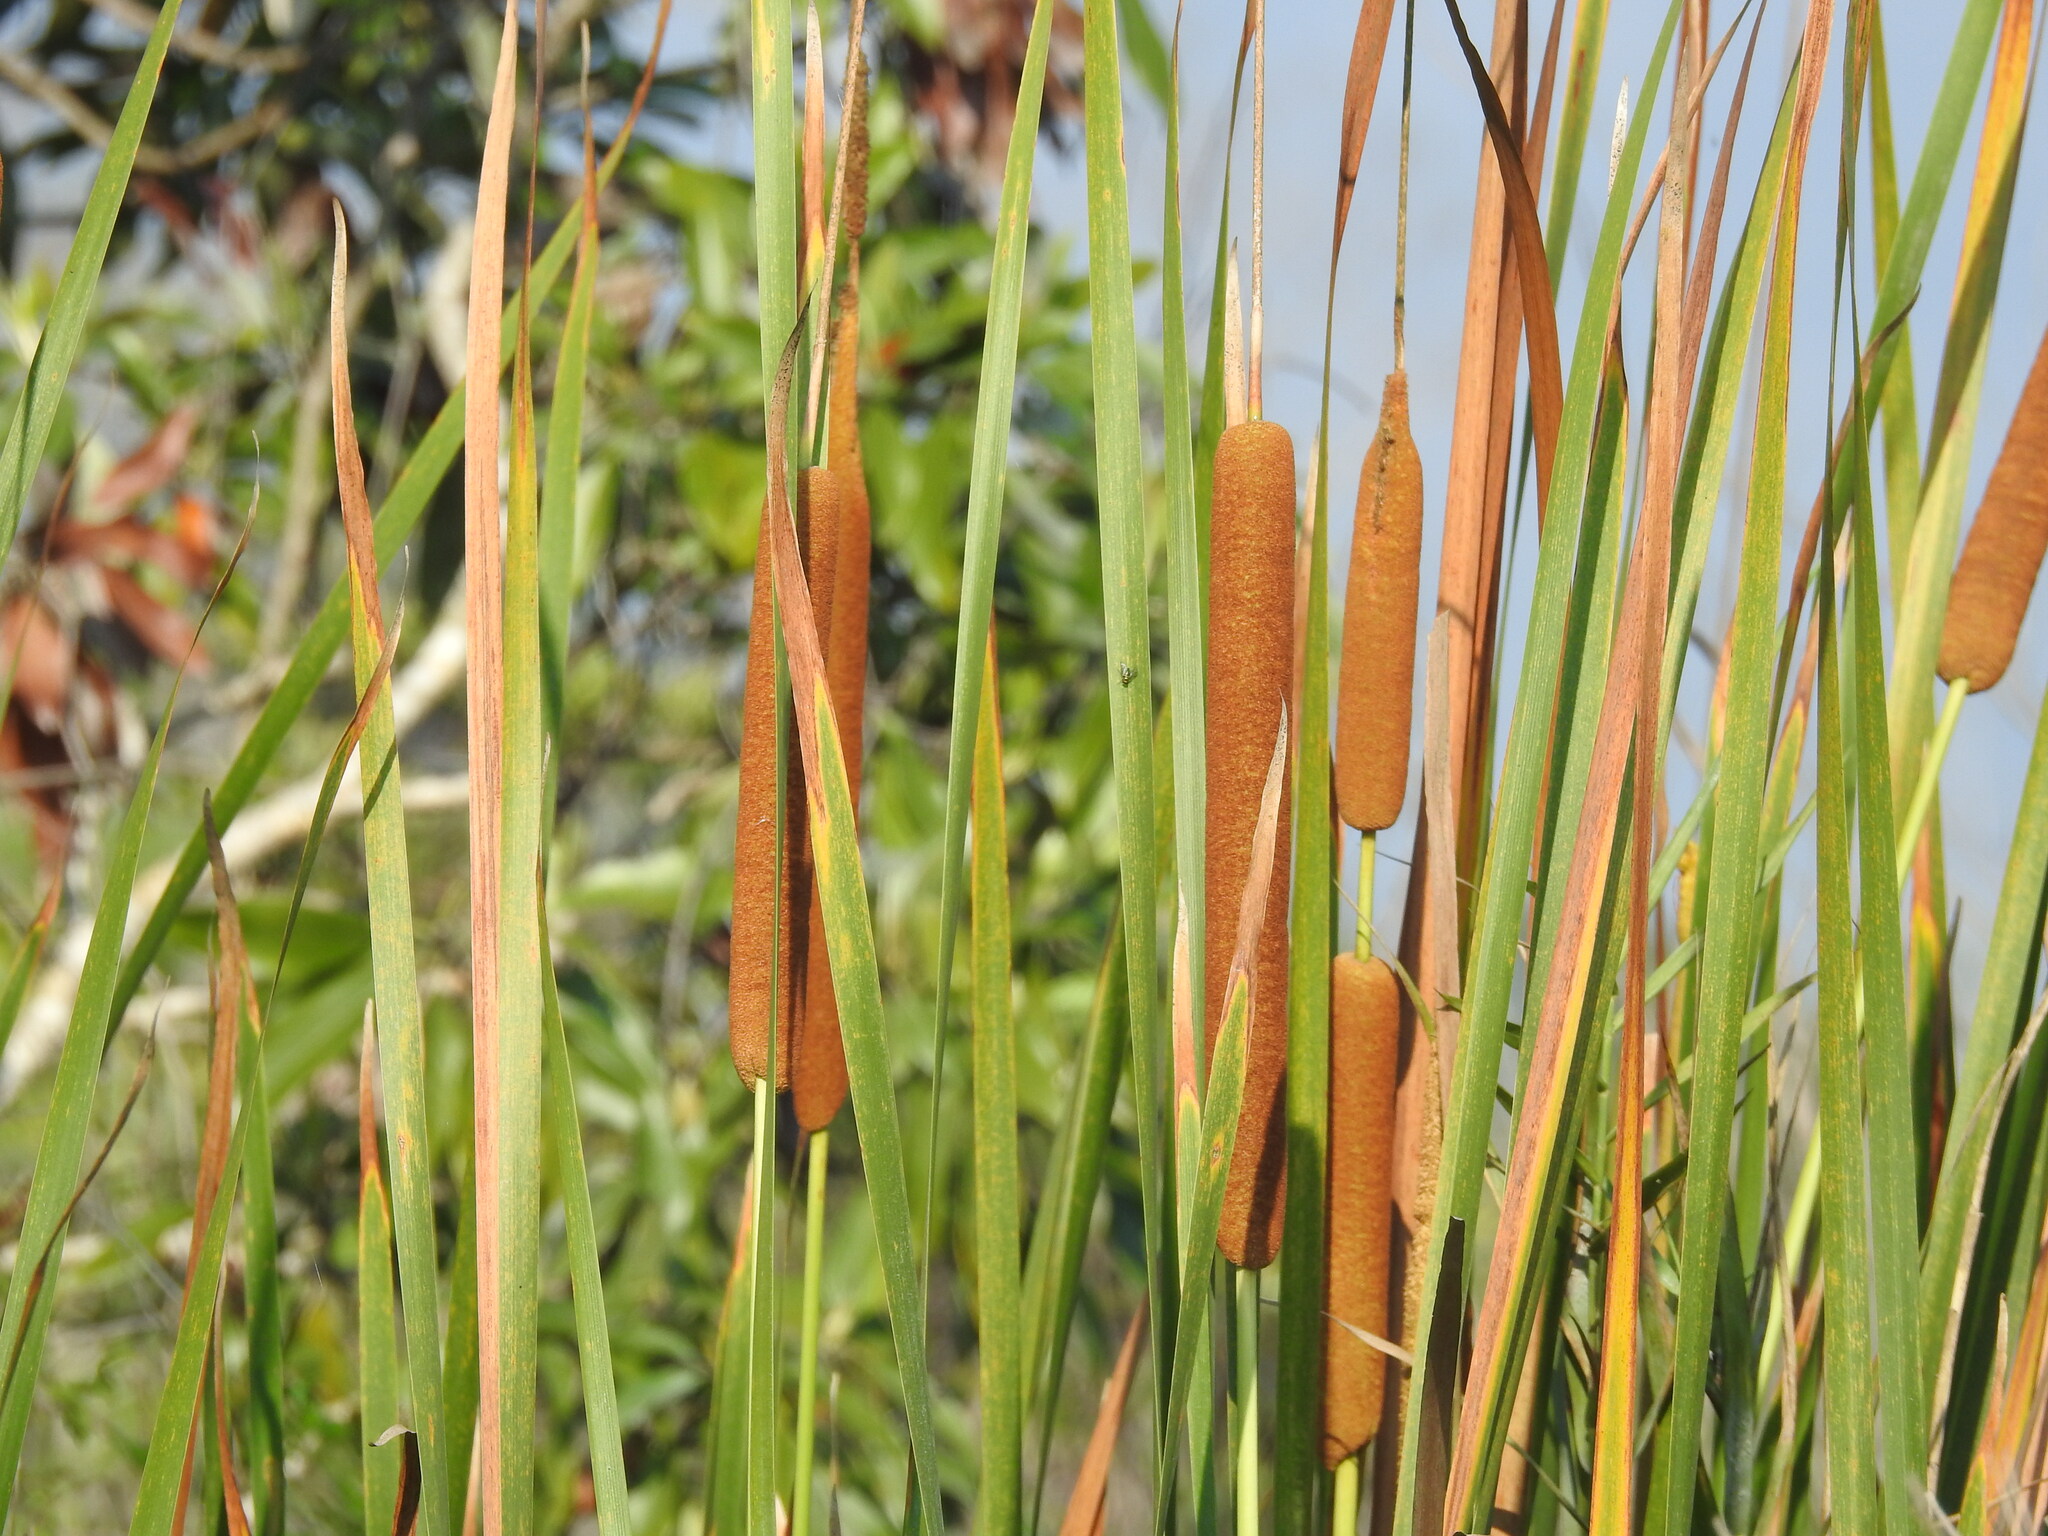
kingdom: Plantae
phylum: Tracheophyta
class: Liliopsida
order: Poales
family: Typhaceae
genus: Typha
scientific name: Typha domingensis
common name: Southern cattail
